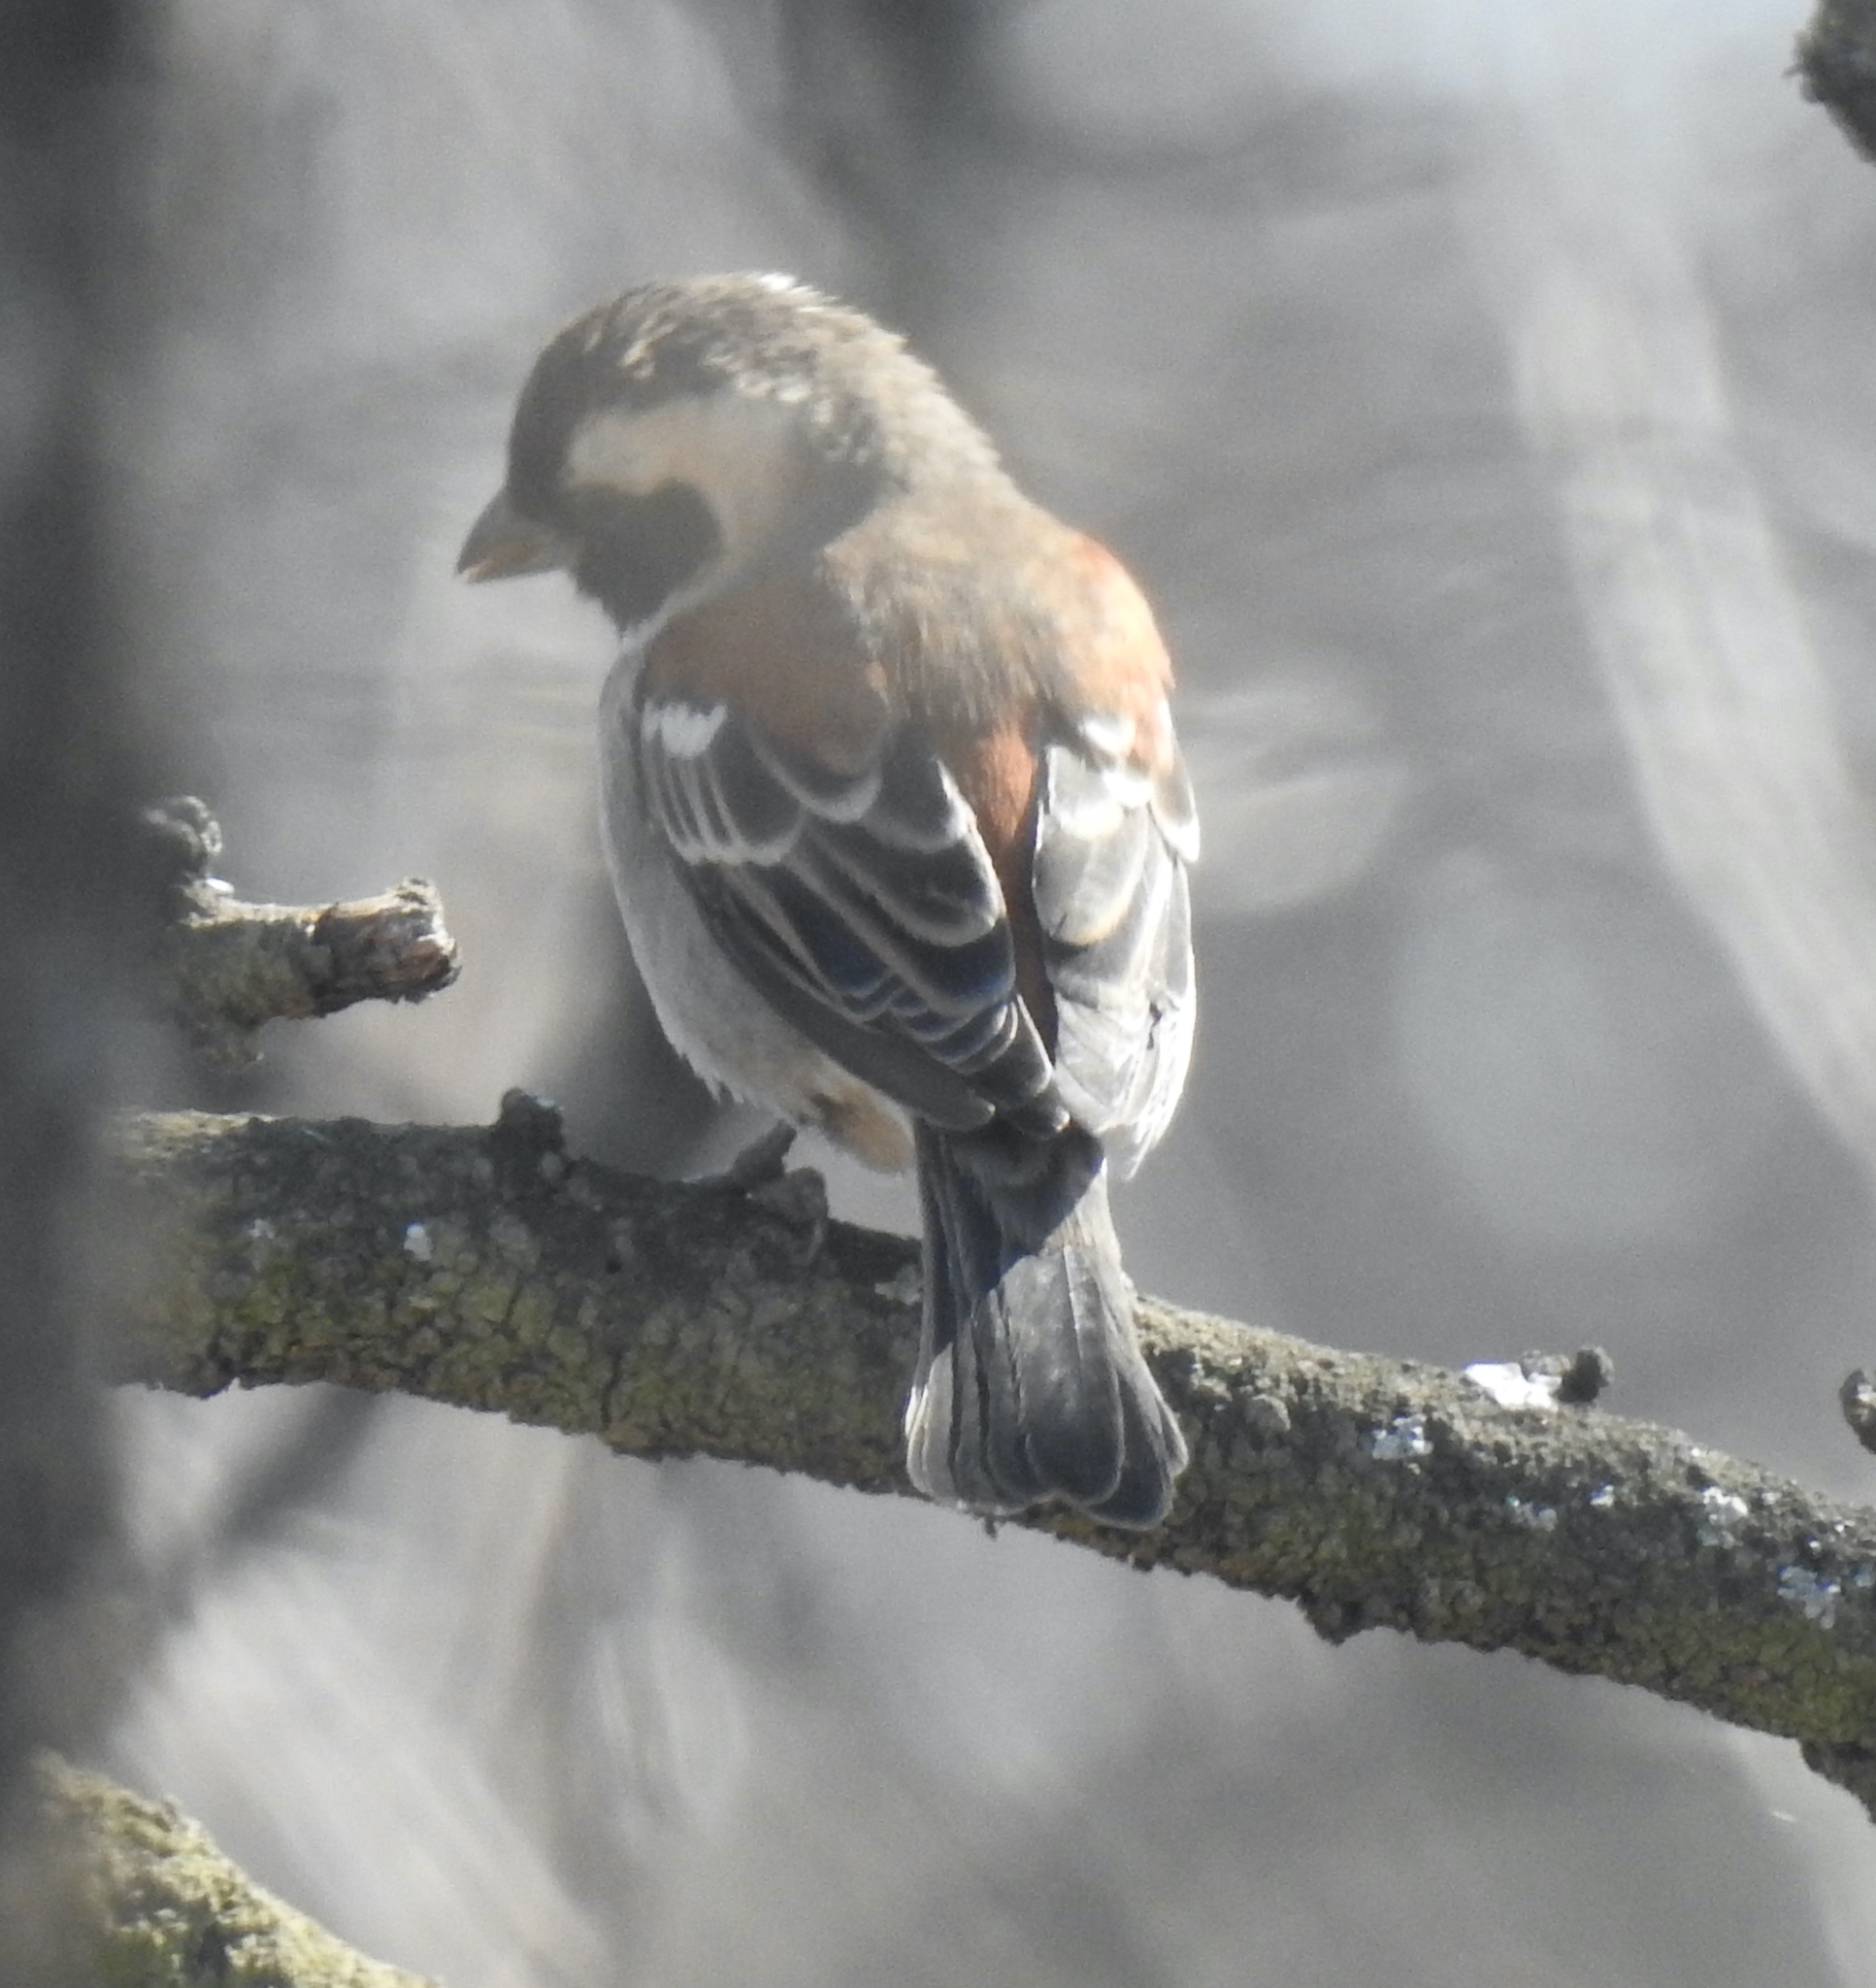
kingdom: Animalia
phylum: Chordata
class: Aves
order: Passeriformes
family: Passeridae
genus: Passer
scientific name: Passer melanurus
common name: Cape sparrow
